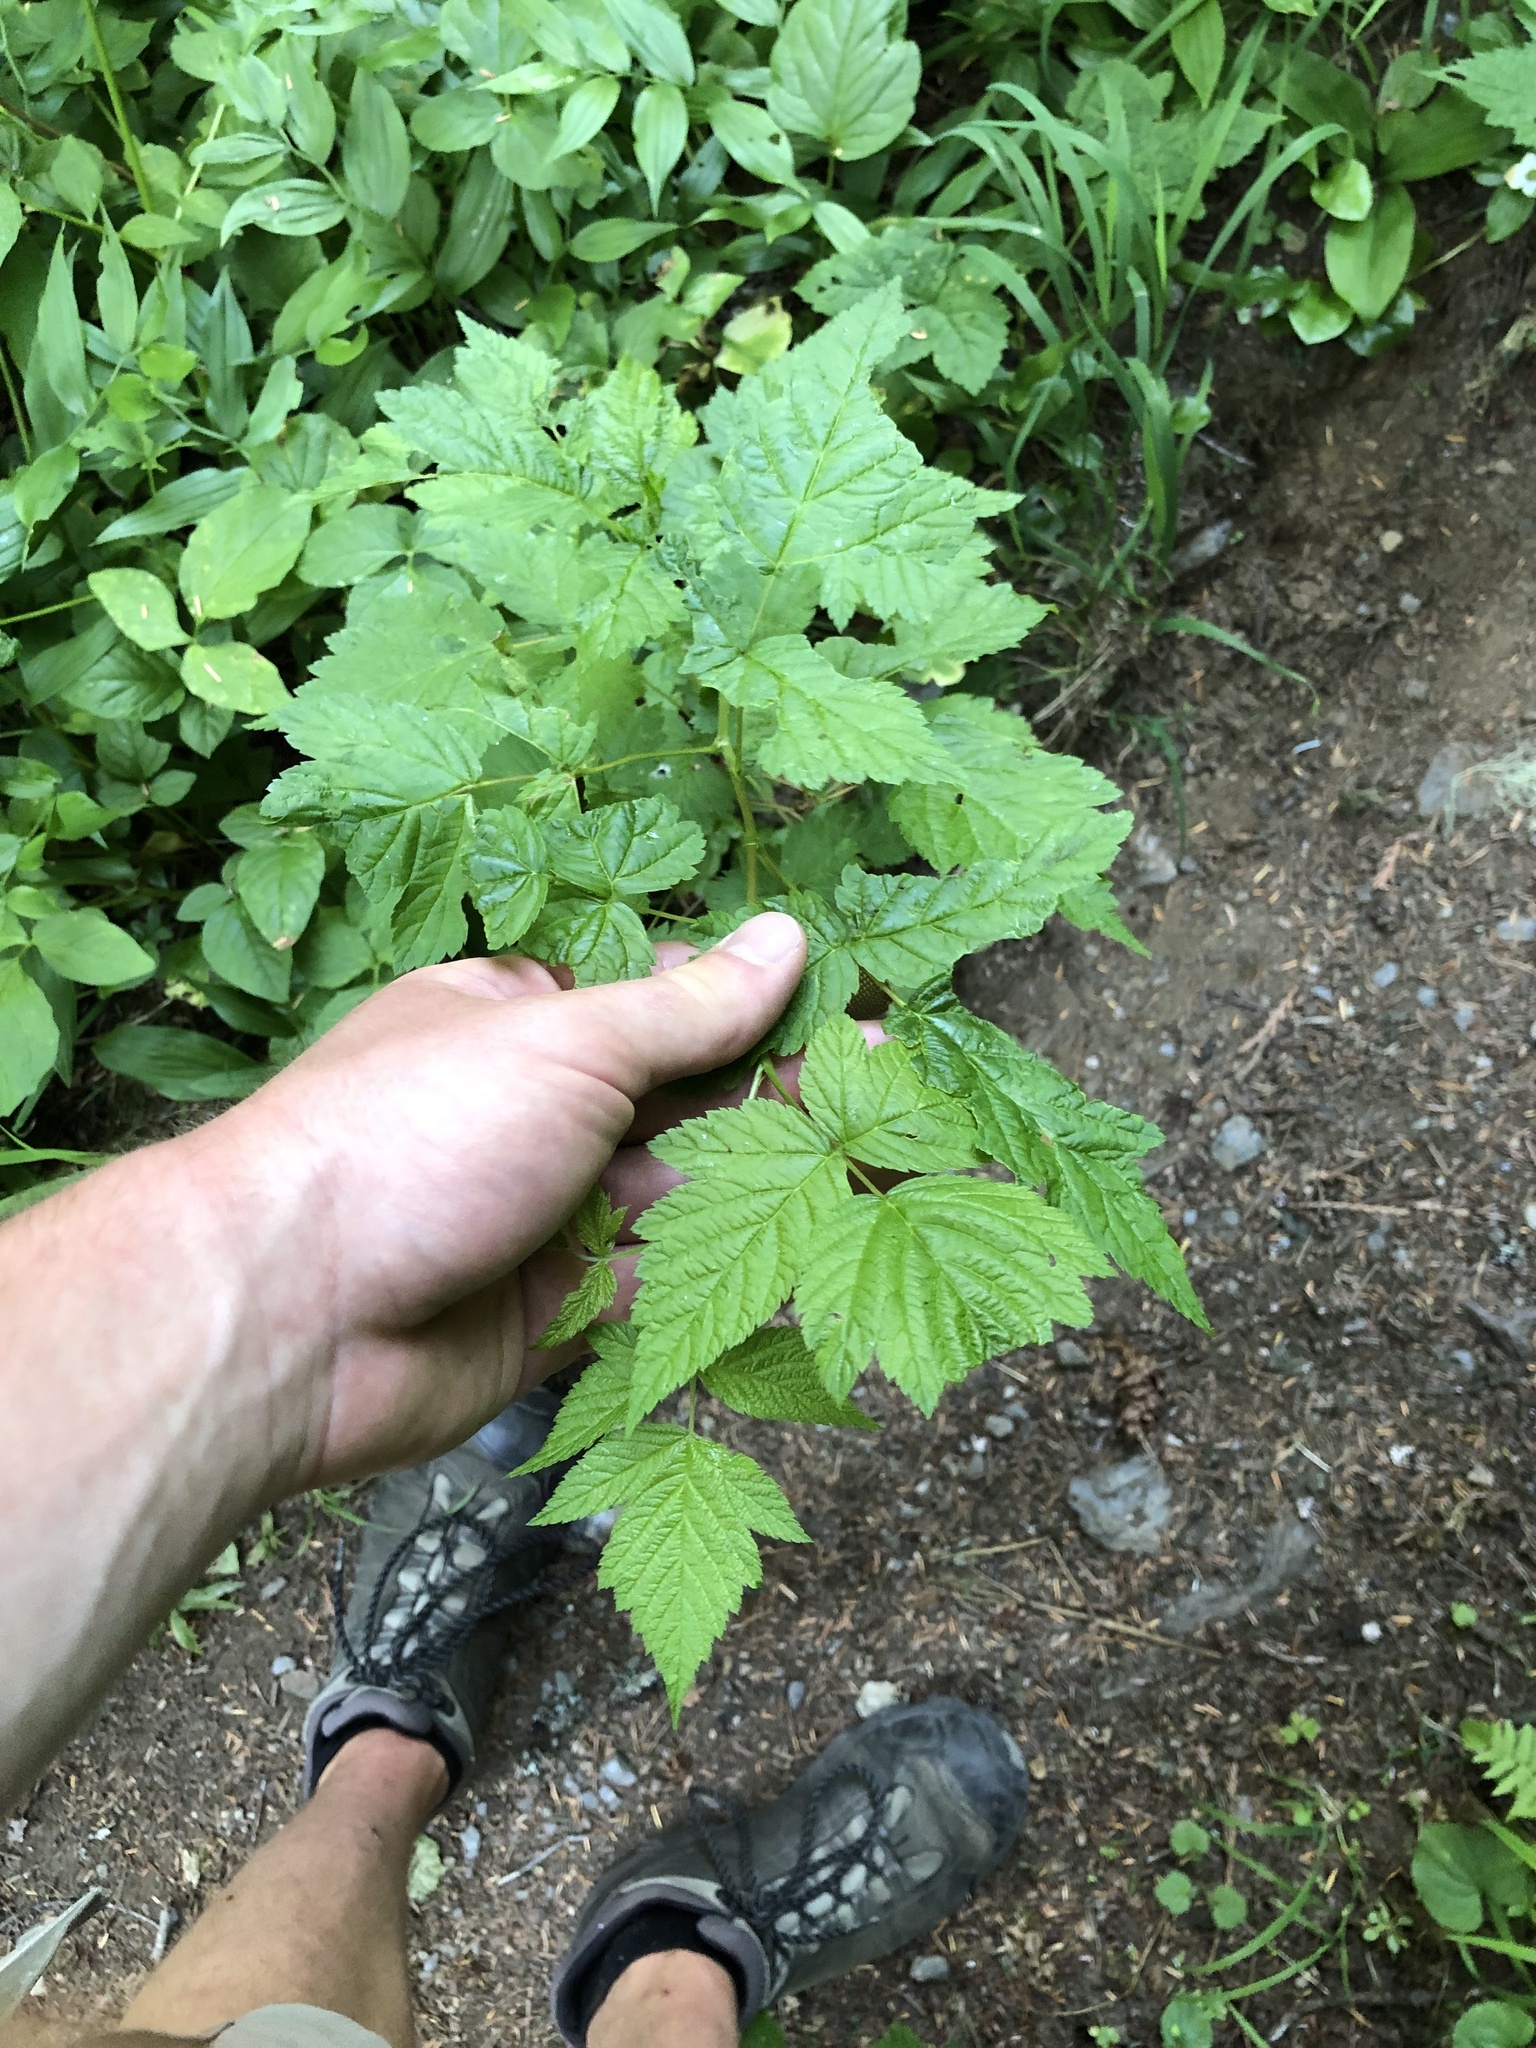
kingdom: Plantae
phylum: Tracheophyta
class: Magnoliopsida
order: Rosales
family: Rosaceae
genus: Rubus
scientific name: Rubus spectabilis
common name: Salmonberry
